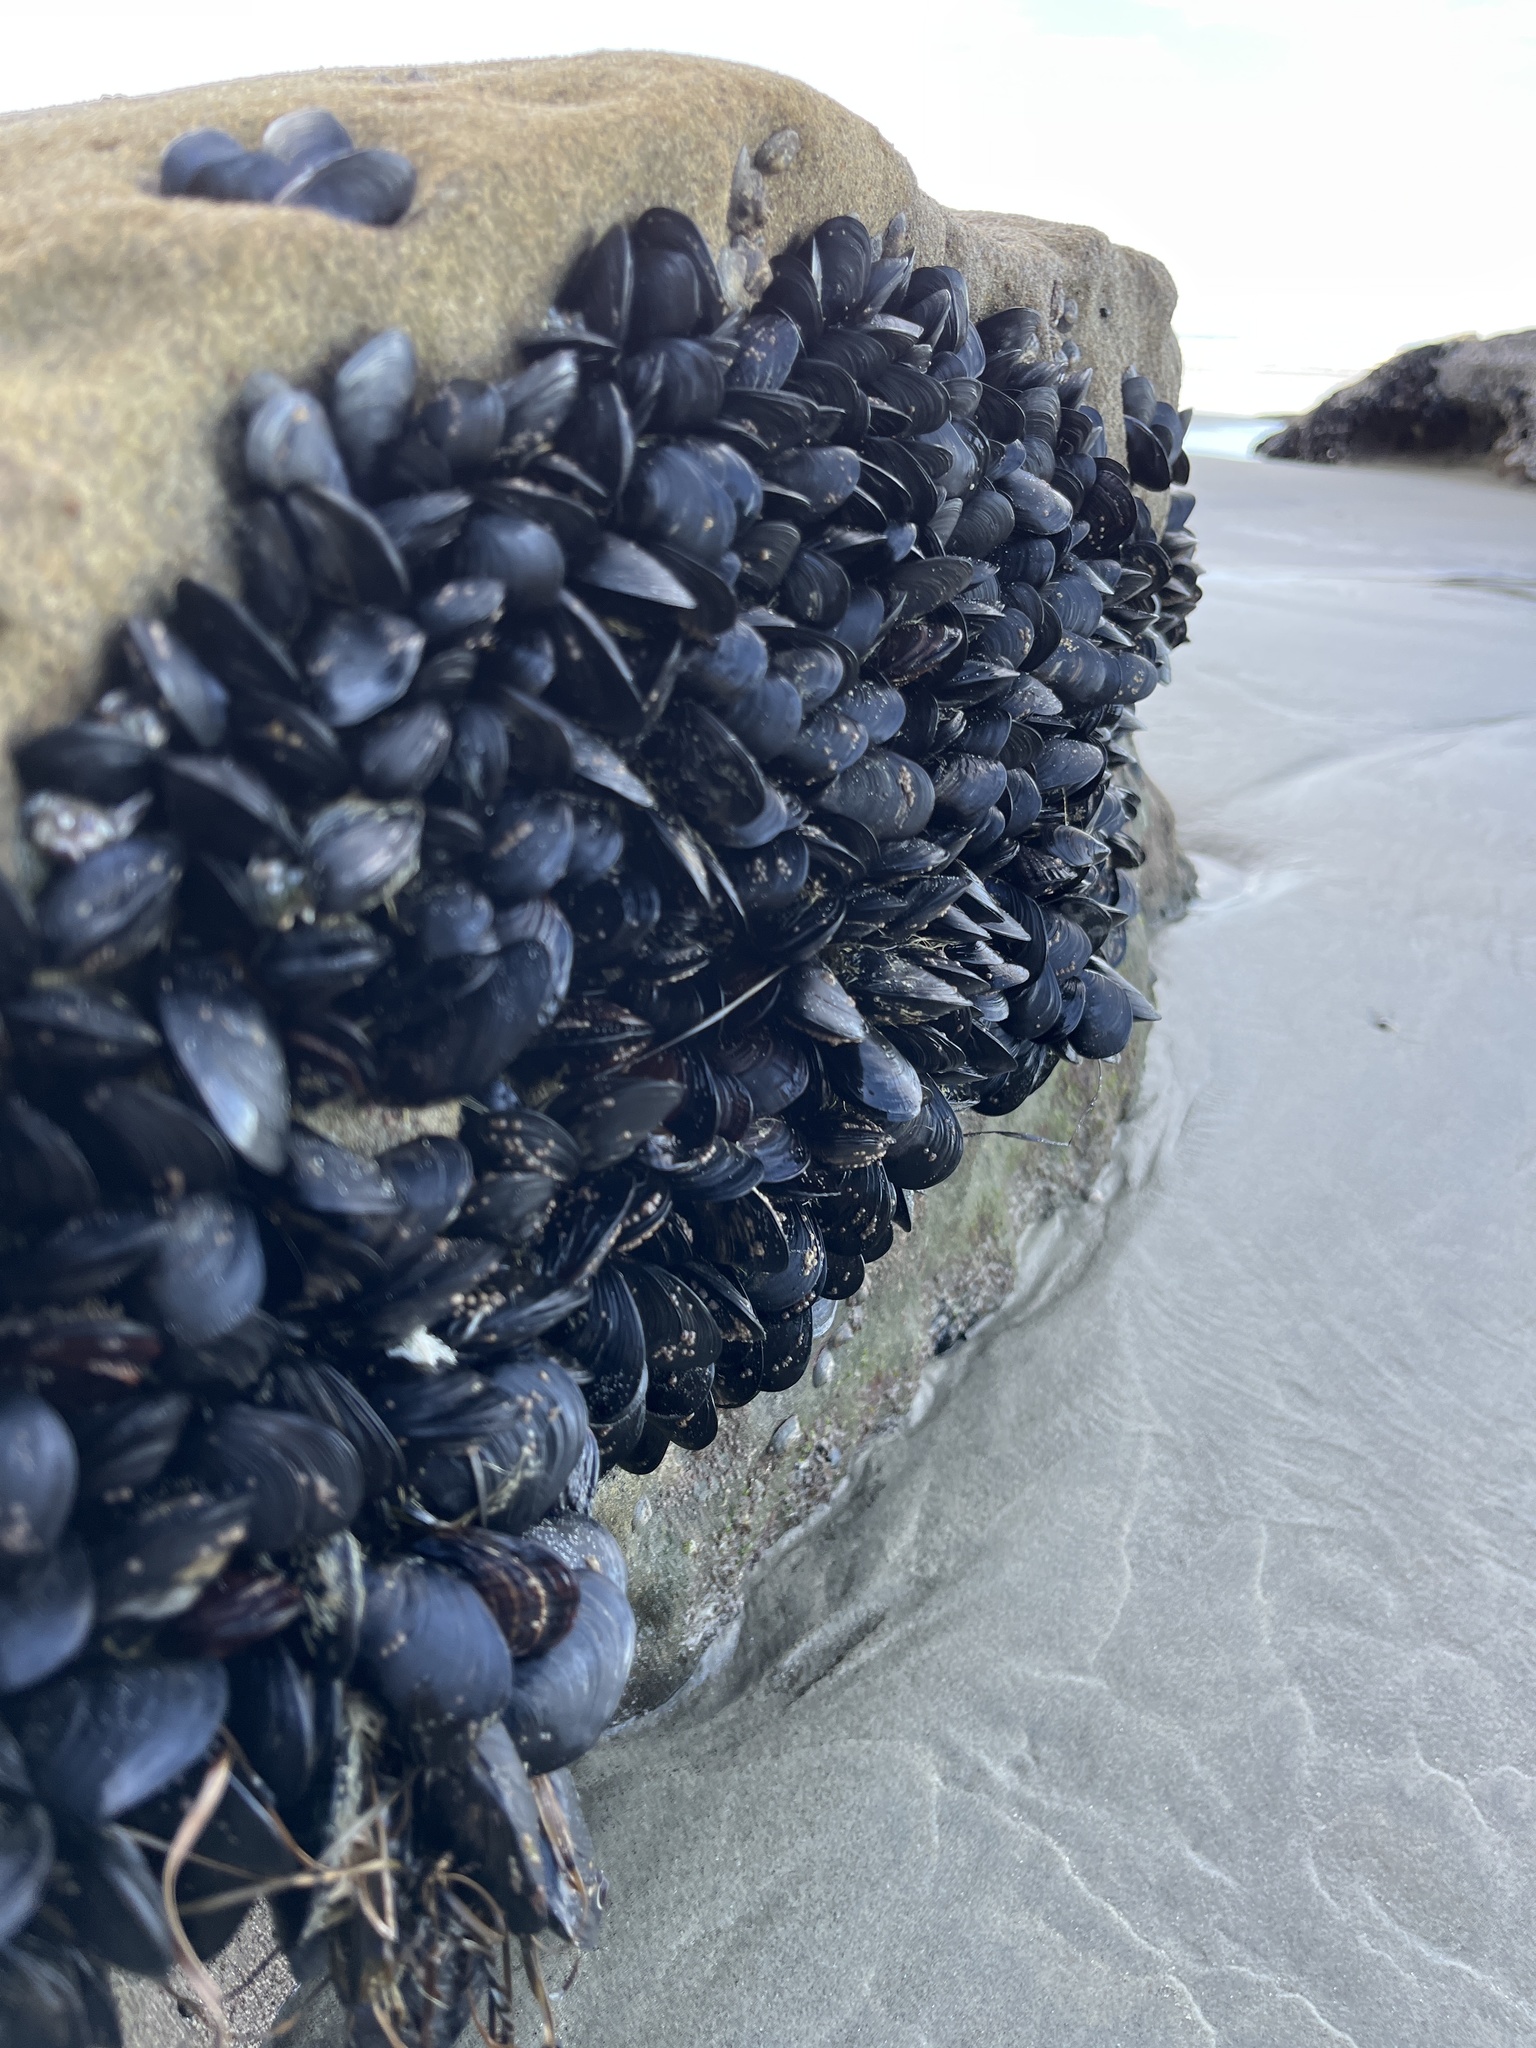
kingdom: Animalia
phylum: Mollusca
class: Bivalvia
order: Mytilida
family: Mytilidae
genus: Mytilus
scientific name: Mytilus californianus
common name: California mussel
